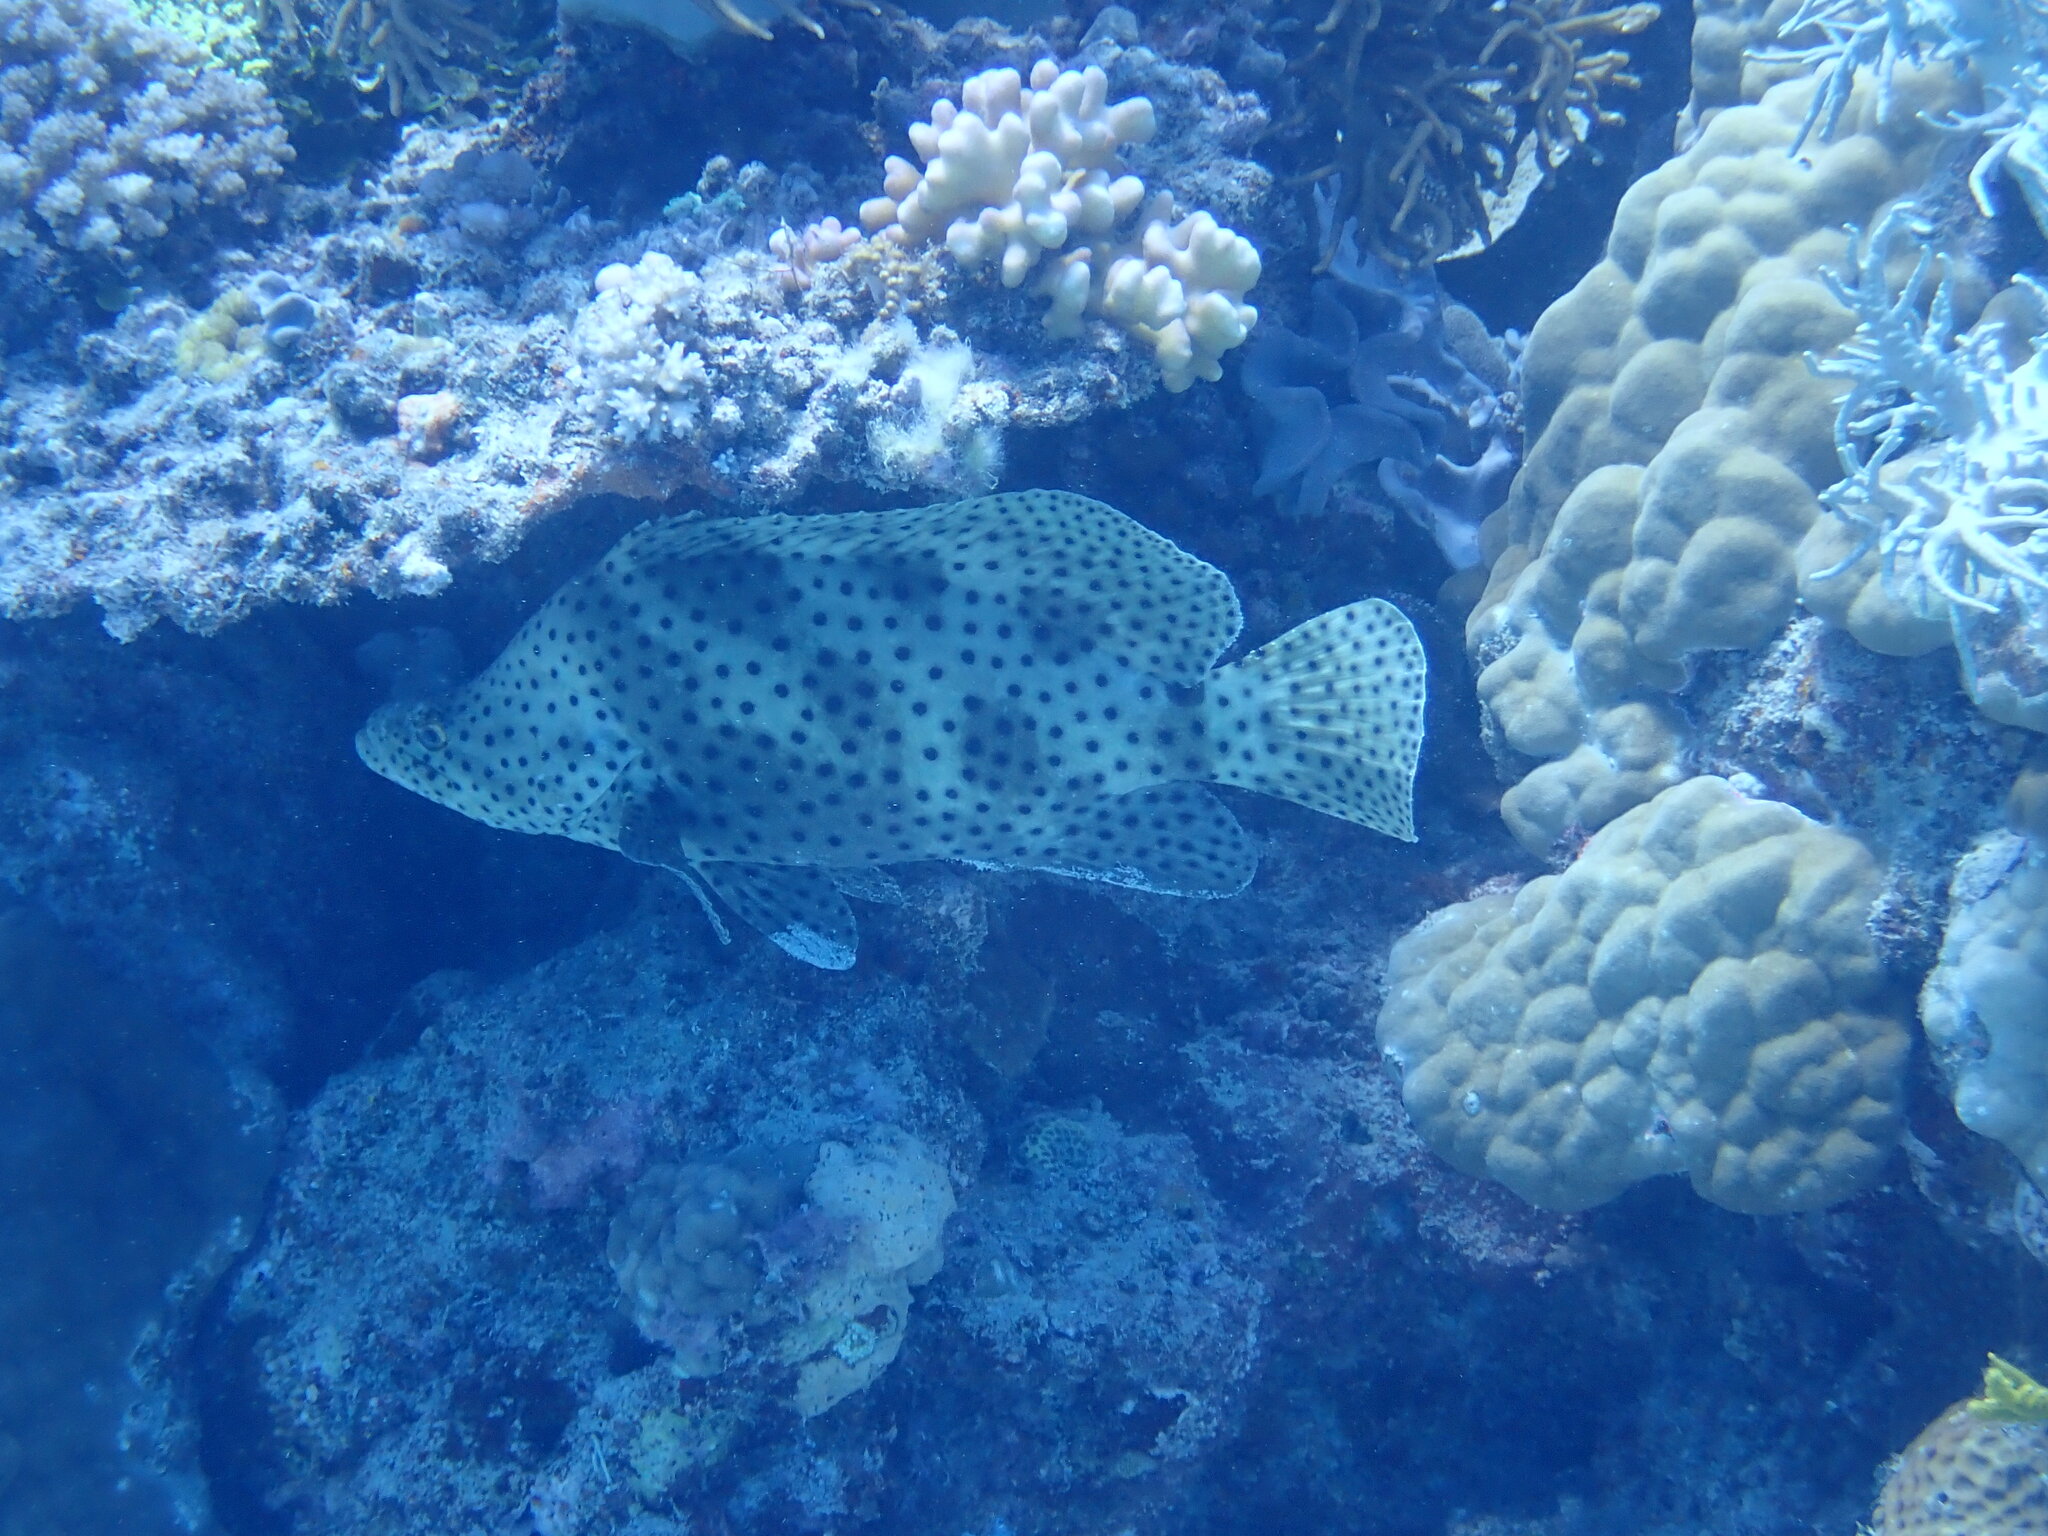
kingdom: Animalia
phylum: Chordata
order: Perciformes
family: Serranidae
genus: Cromileptes
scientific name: Cromileptes altivelis
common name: Humpback grouper
